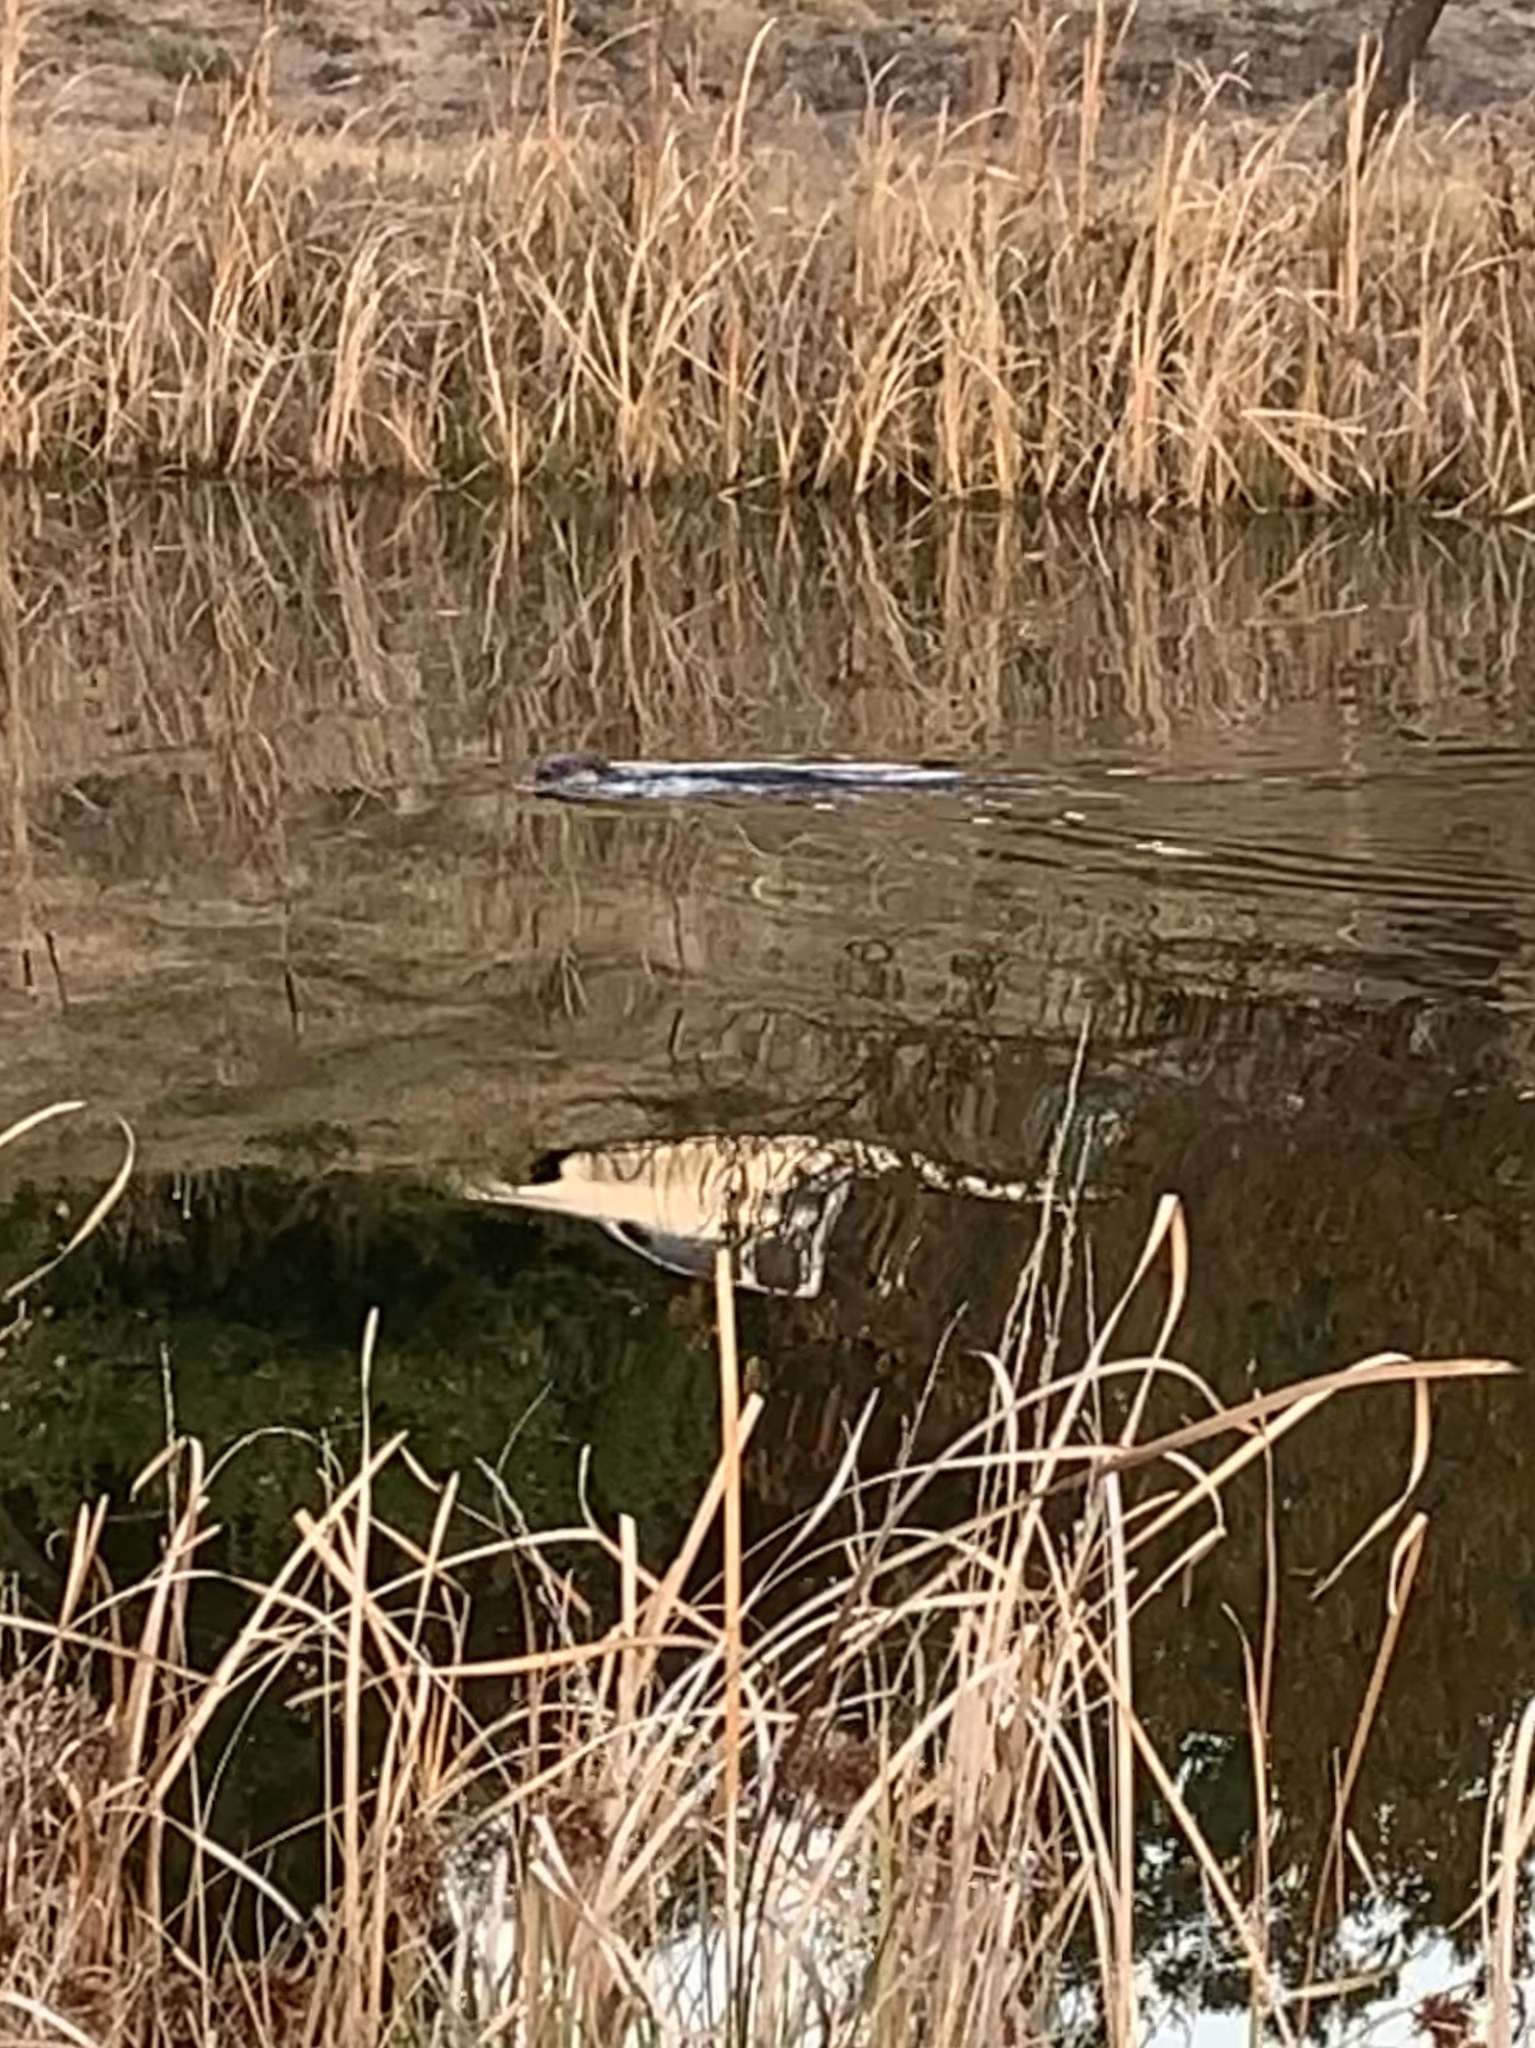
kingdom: Animalia
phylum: Chordata
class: Mammalia
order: Carnivora
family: Mustelidae
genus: Lontra
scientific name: Lontra canadensis
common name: North american river otter
